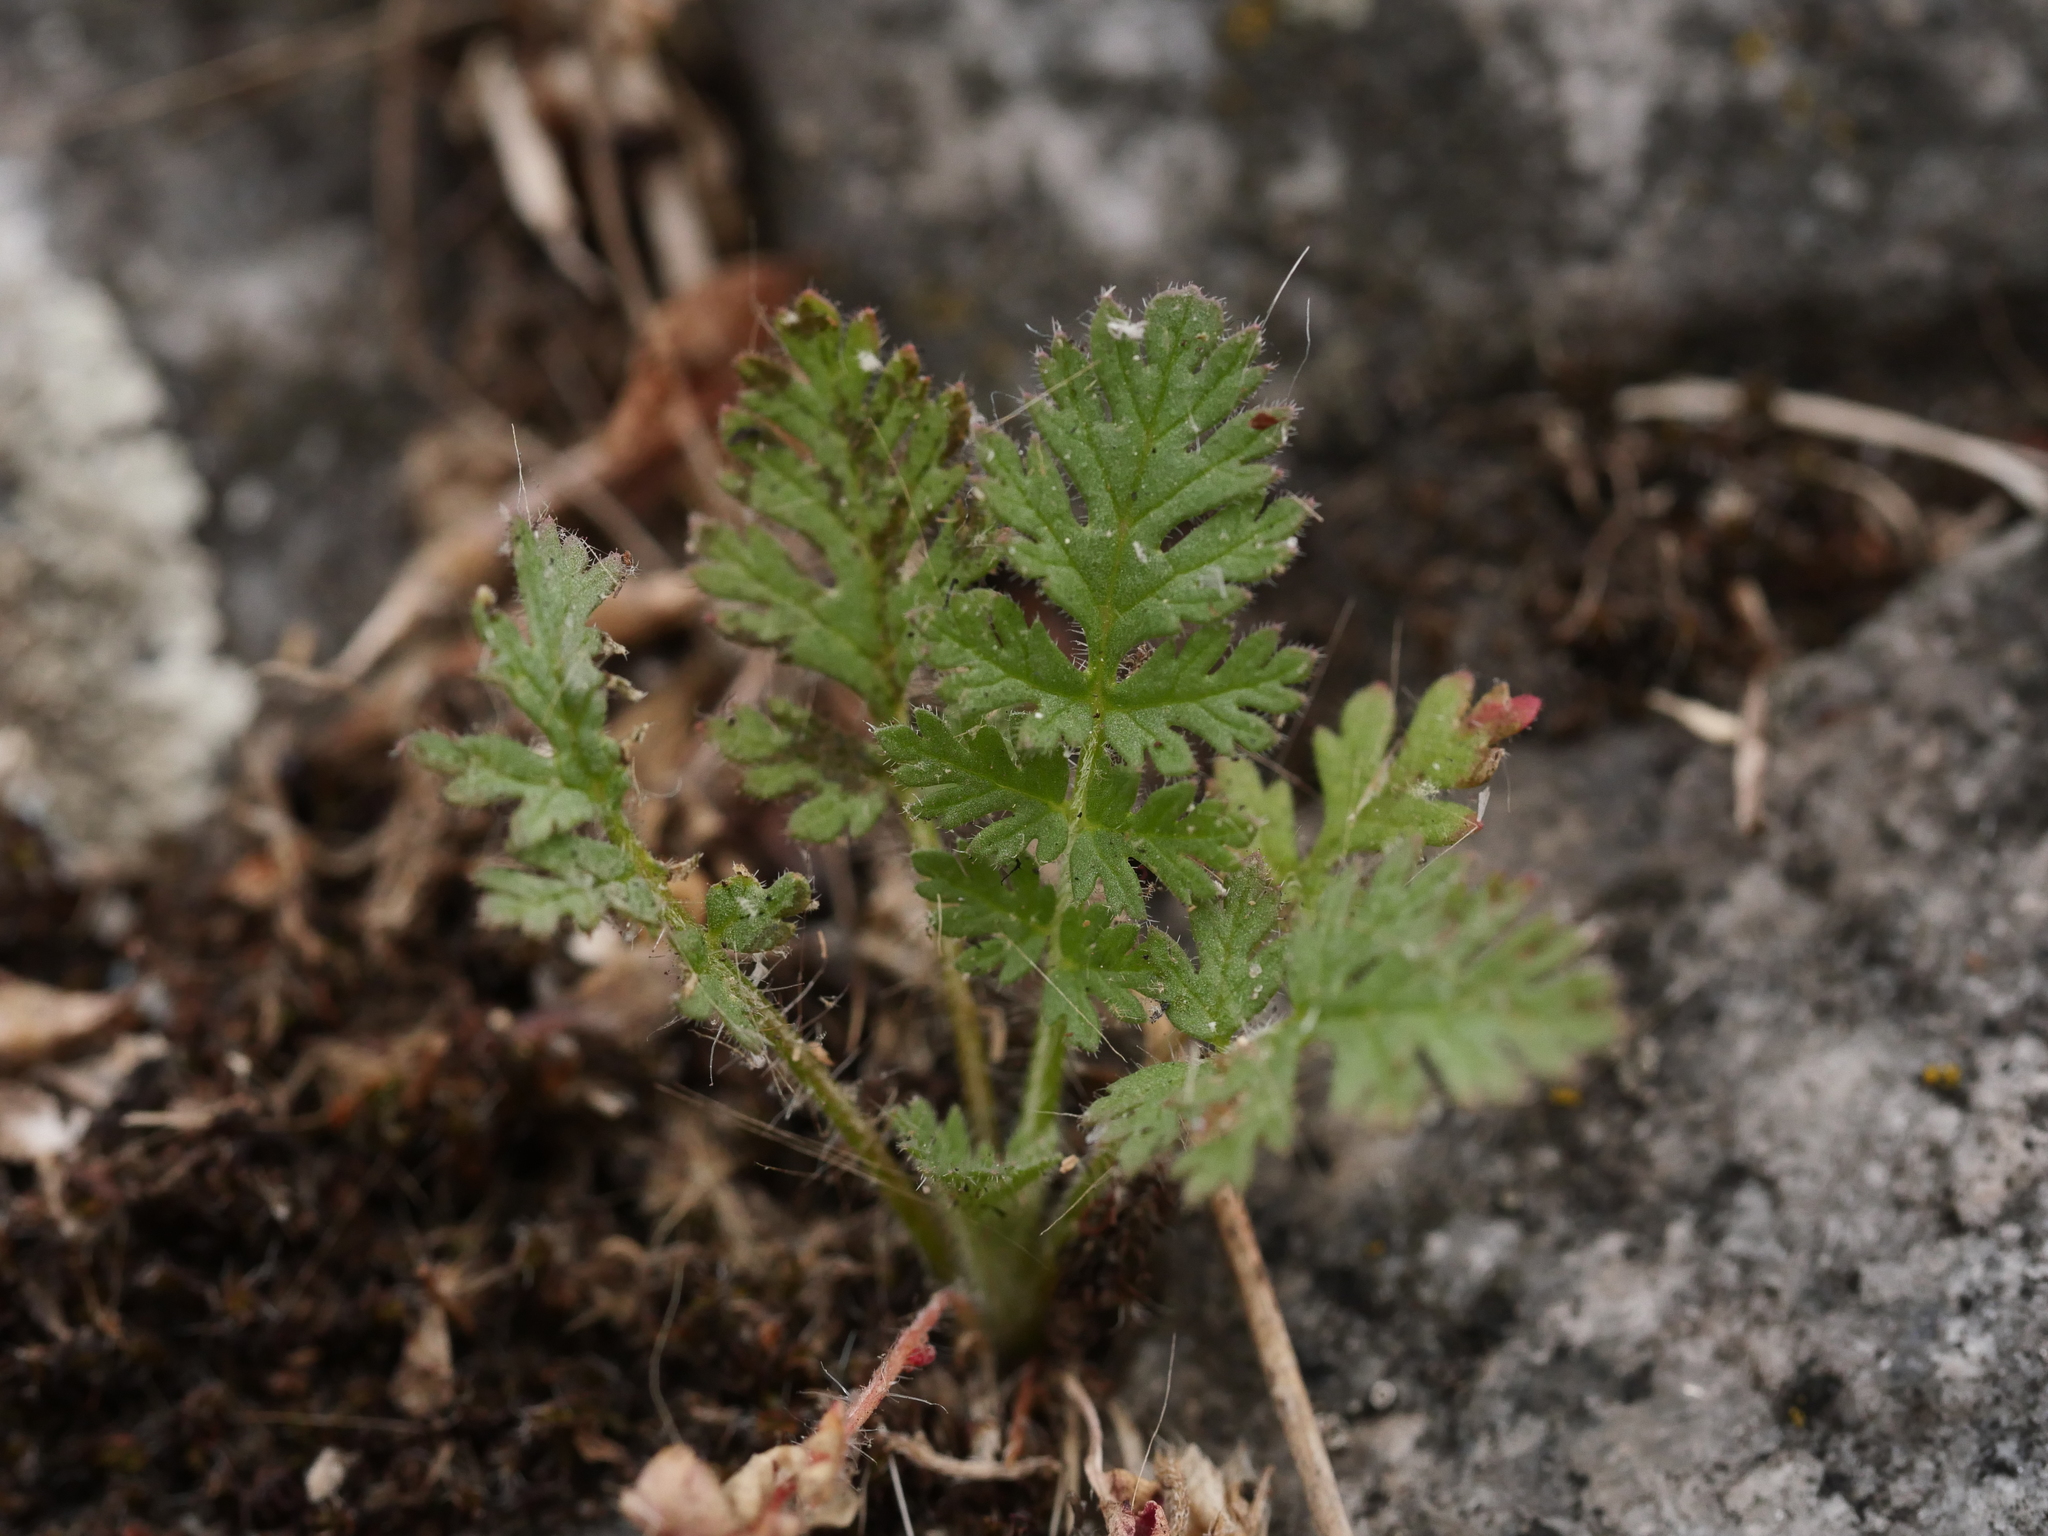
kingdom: Plantae
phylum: Tracheophyta
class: Magnoliopsida
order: Geraniales
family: Geraniaceae
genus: Erodium
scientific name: Erodium cicutarium
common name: Common stork's-bill
